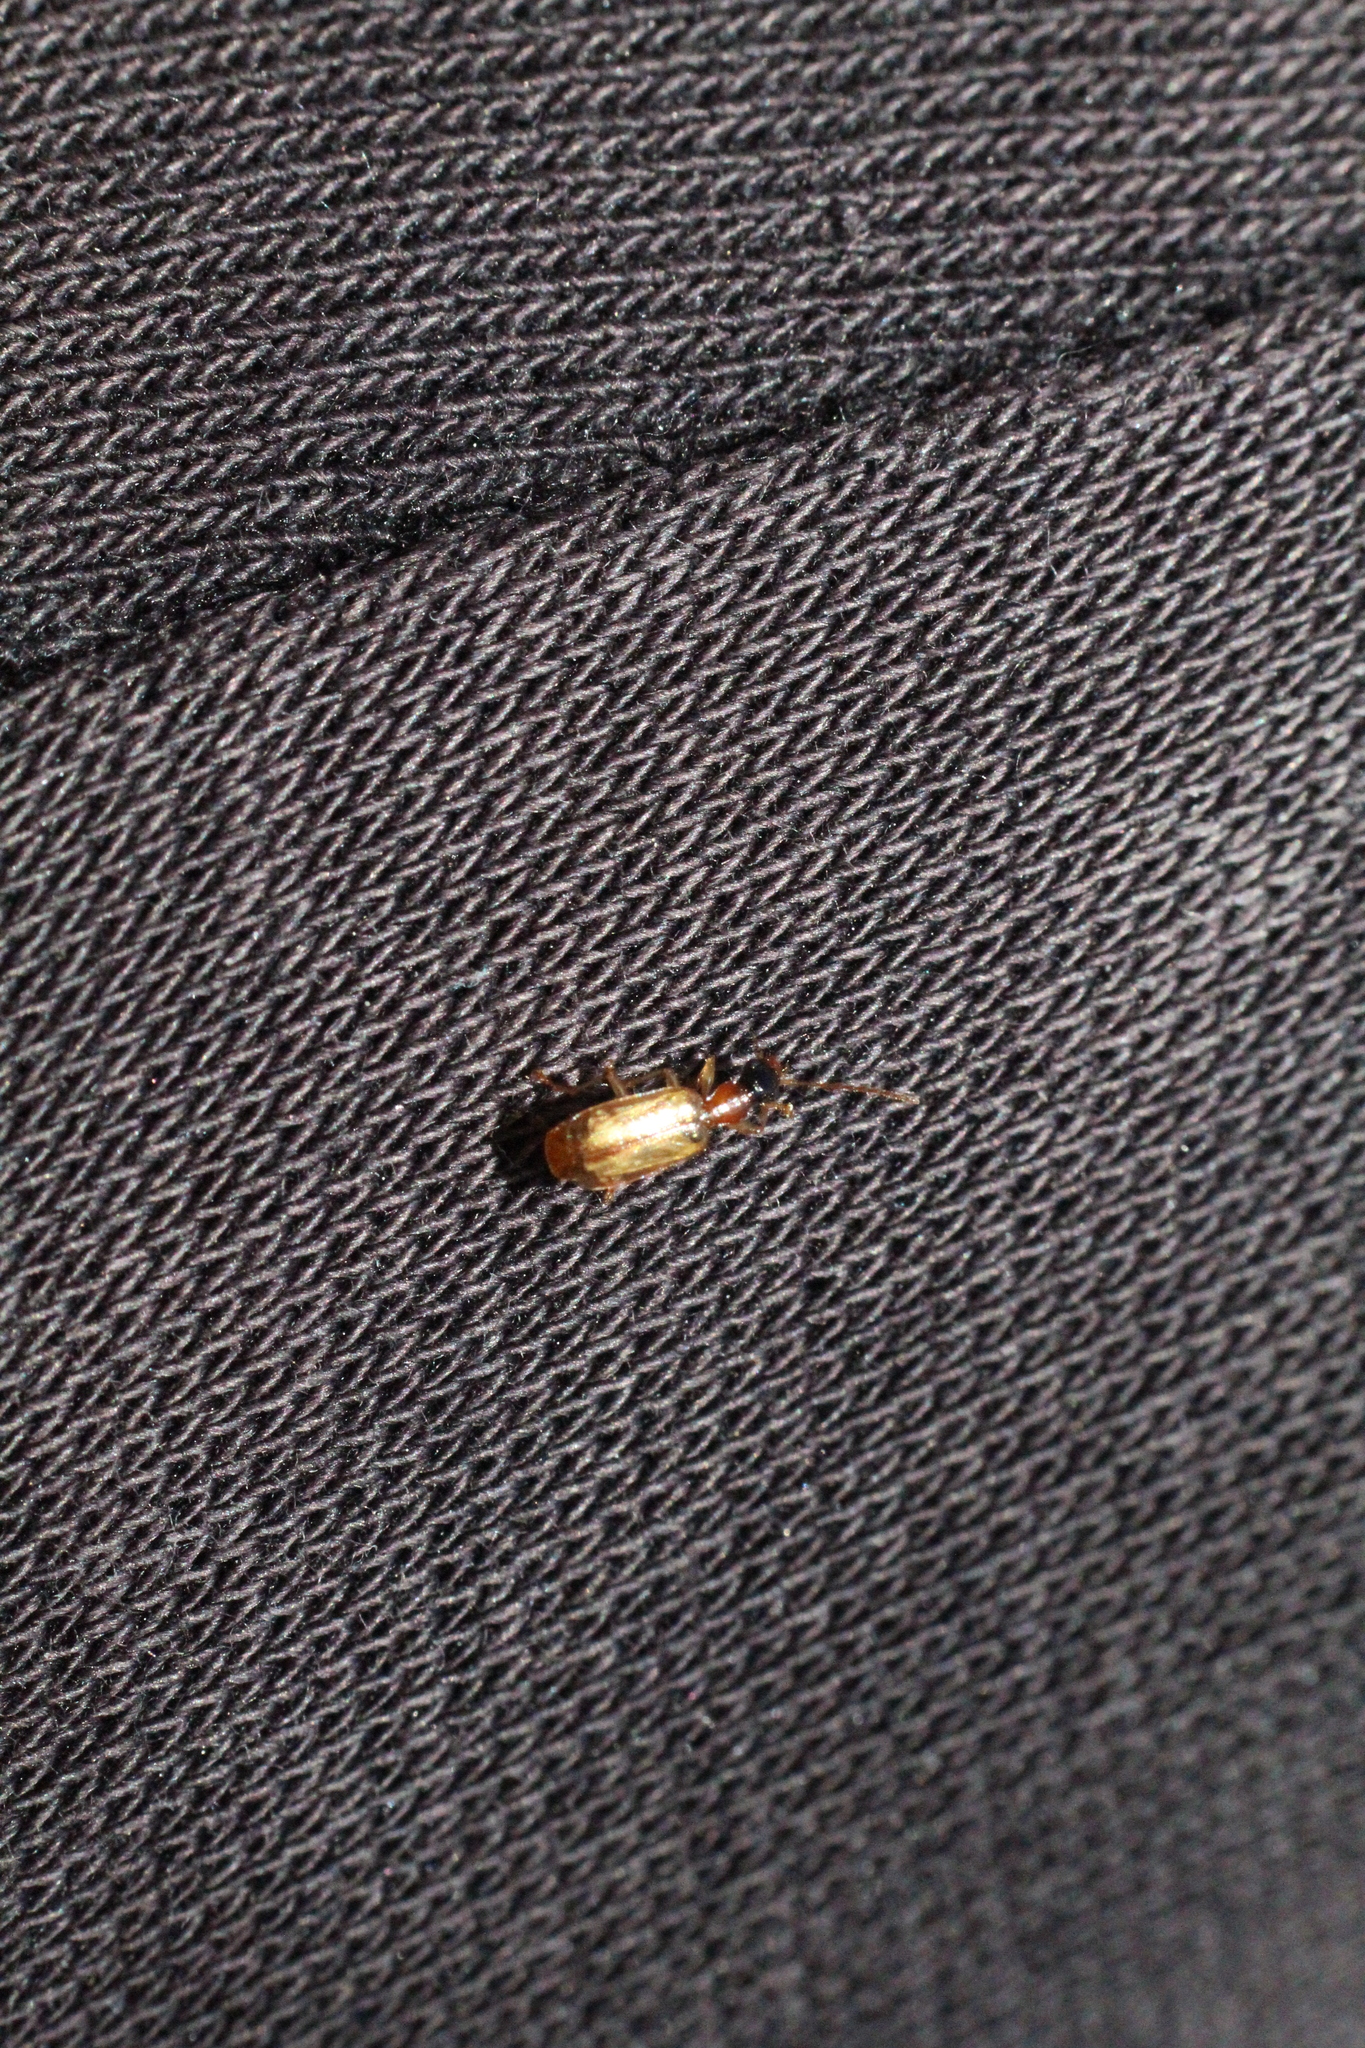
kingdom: Animalia
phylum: Arthropoda
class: Insecta
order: Coleoptera
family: Carabidae
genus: Demetrias
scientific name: Demetrias atricapillus
